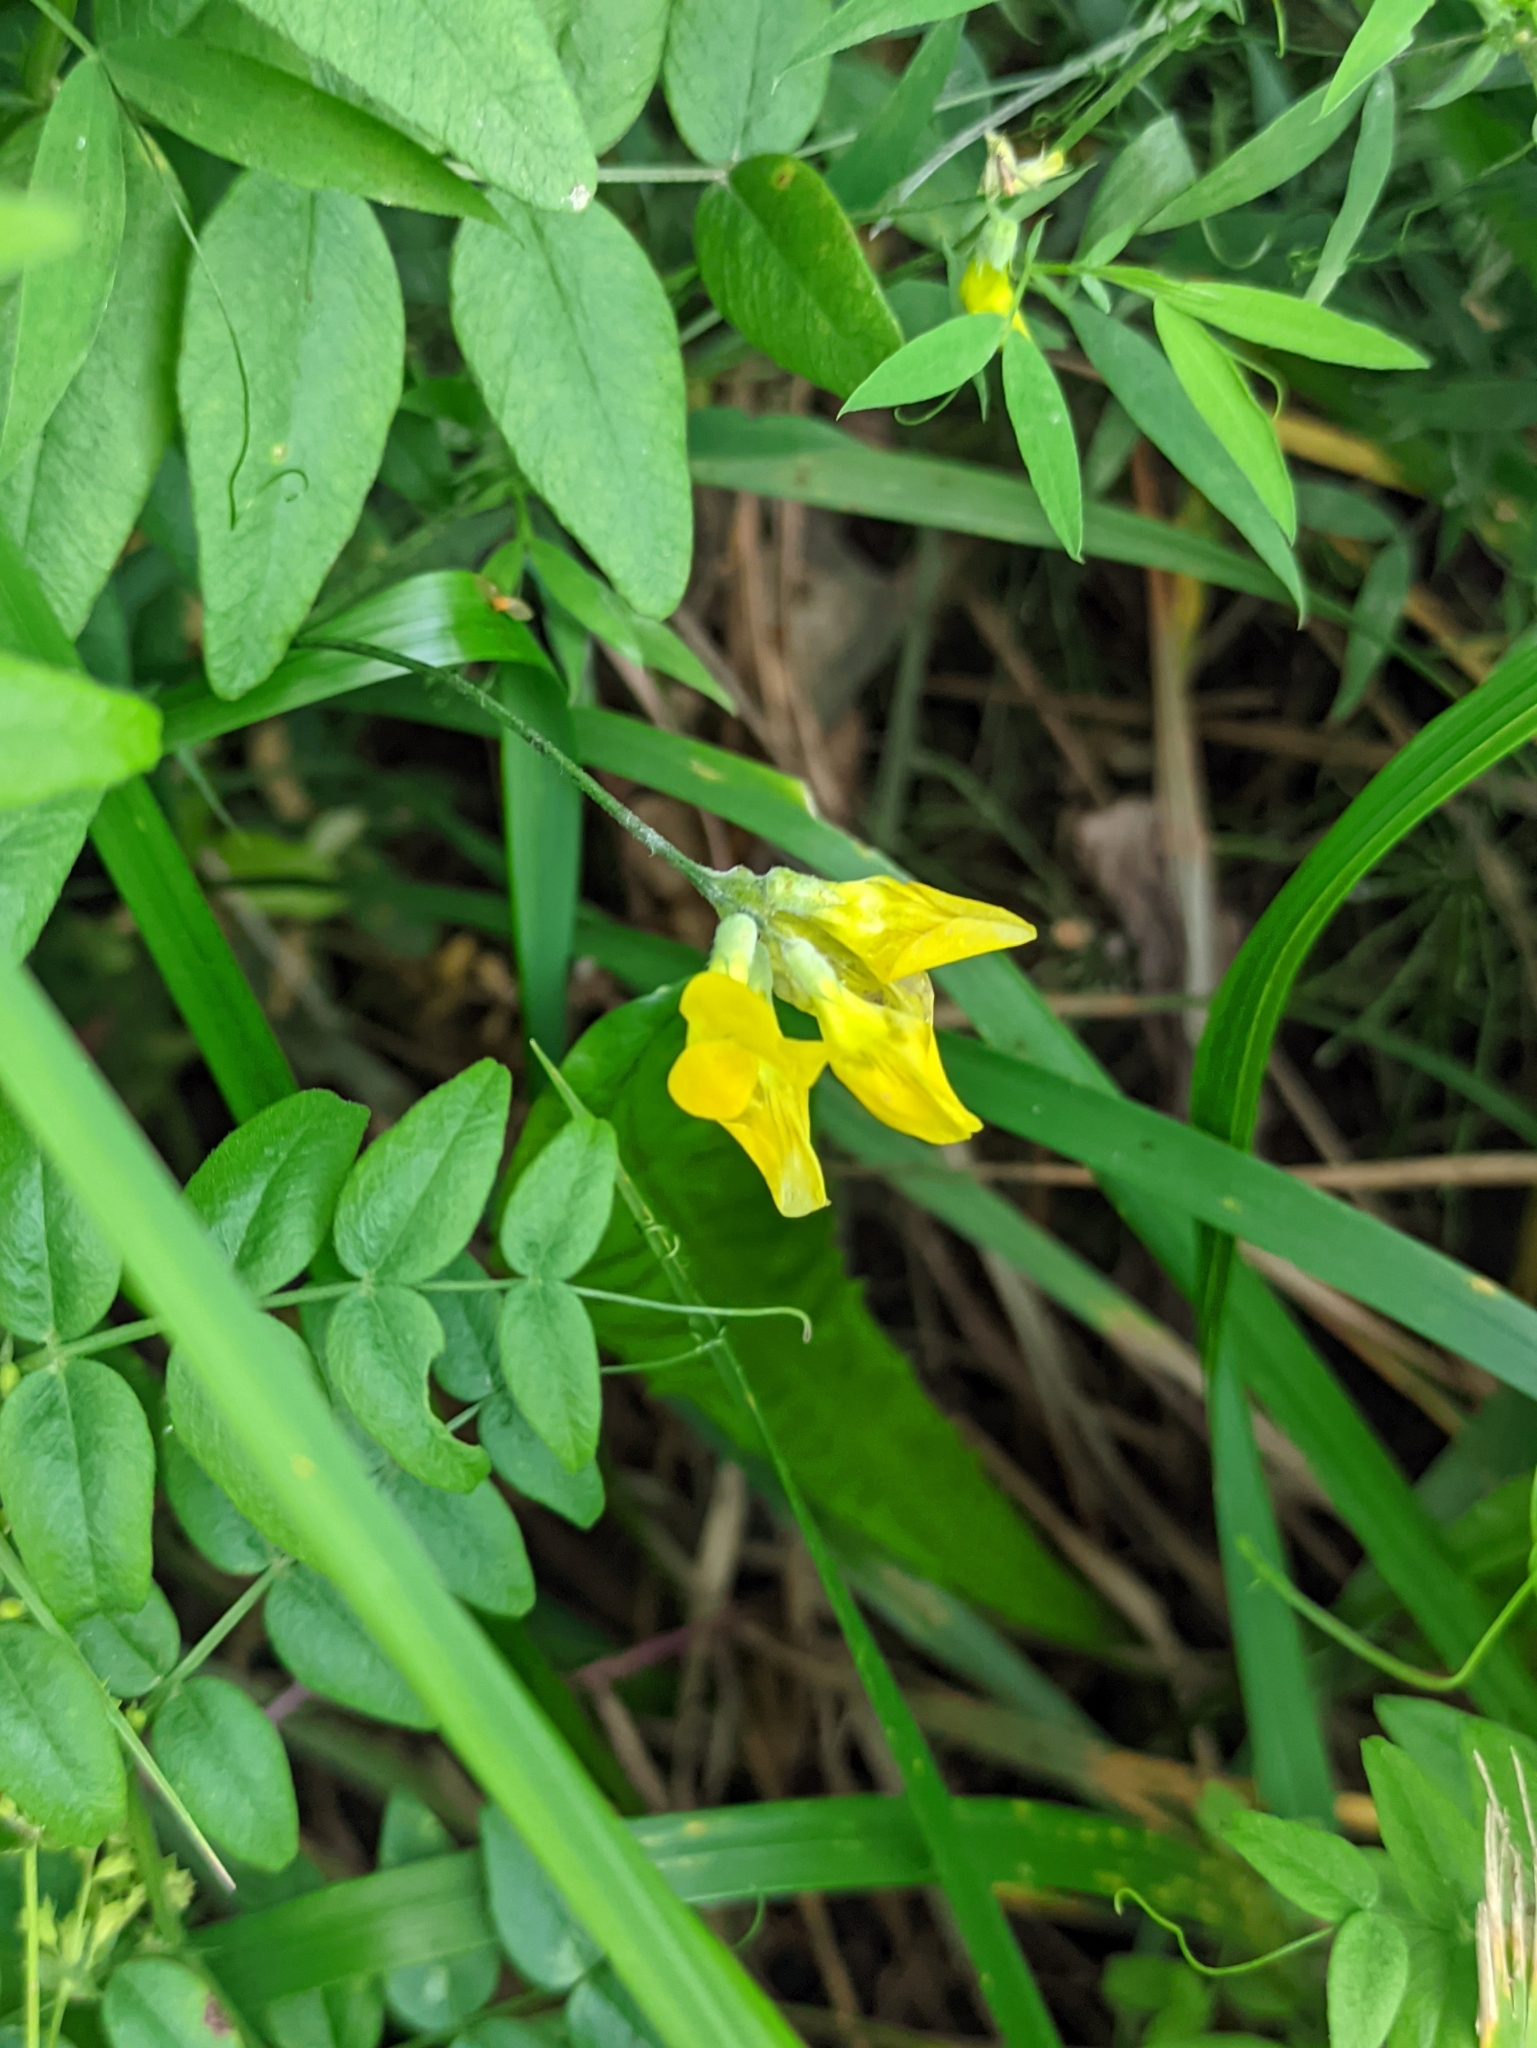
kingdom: Plantae
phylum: Tracheophyta
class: Magnoliopsida
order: Fabales
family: Fabaceae
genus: Lathyrus
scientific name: Lathyrus pratensis
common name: Meadow vetchling
